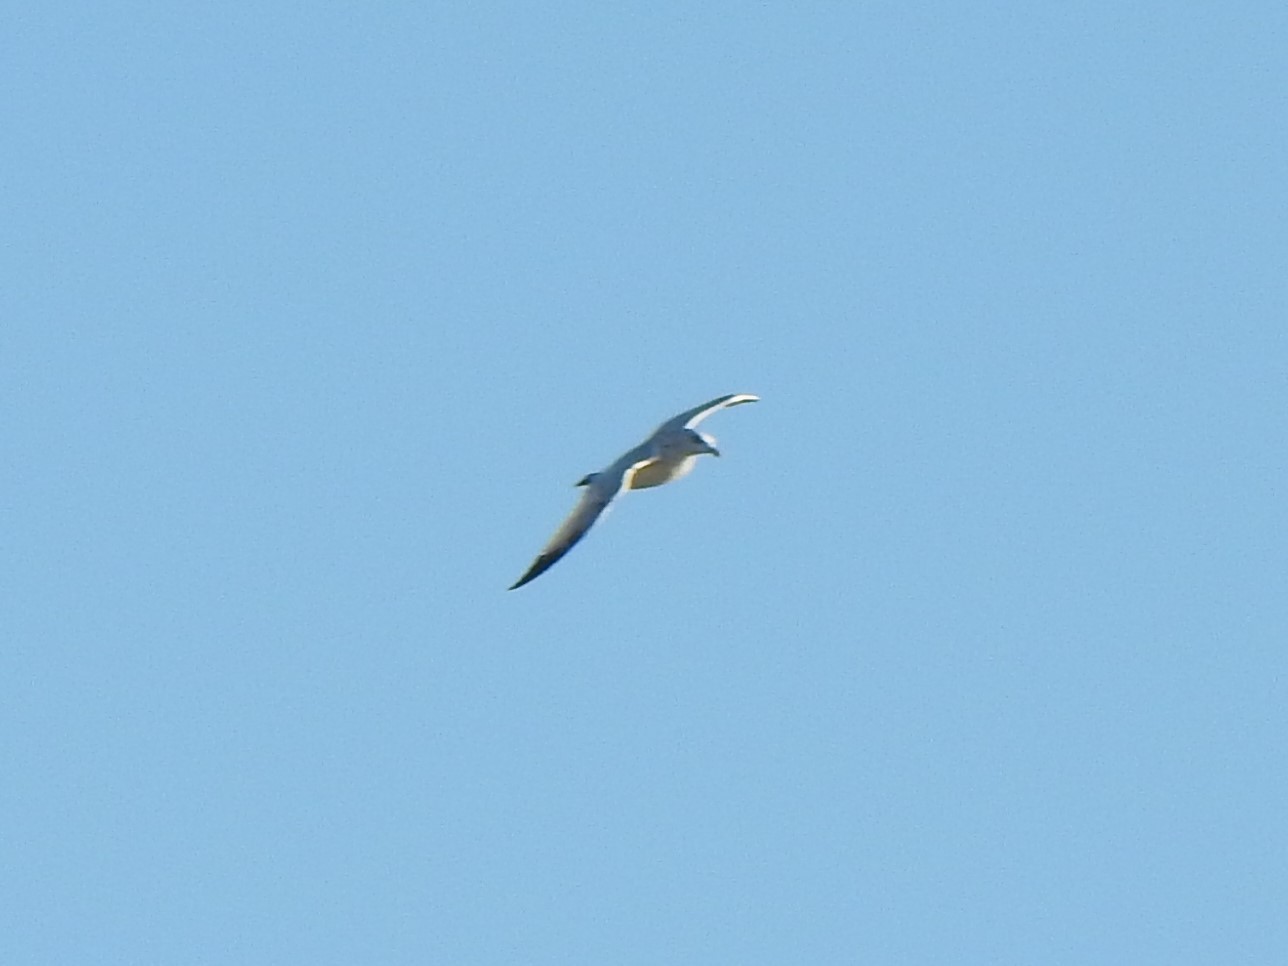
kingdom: Animalia
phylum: Chordata
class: Aves
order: Charadriiformes
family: Laridae
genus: Larus
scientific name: Larus argentatus
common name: Herring gull
